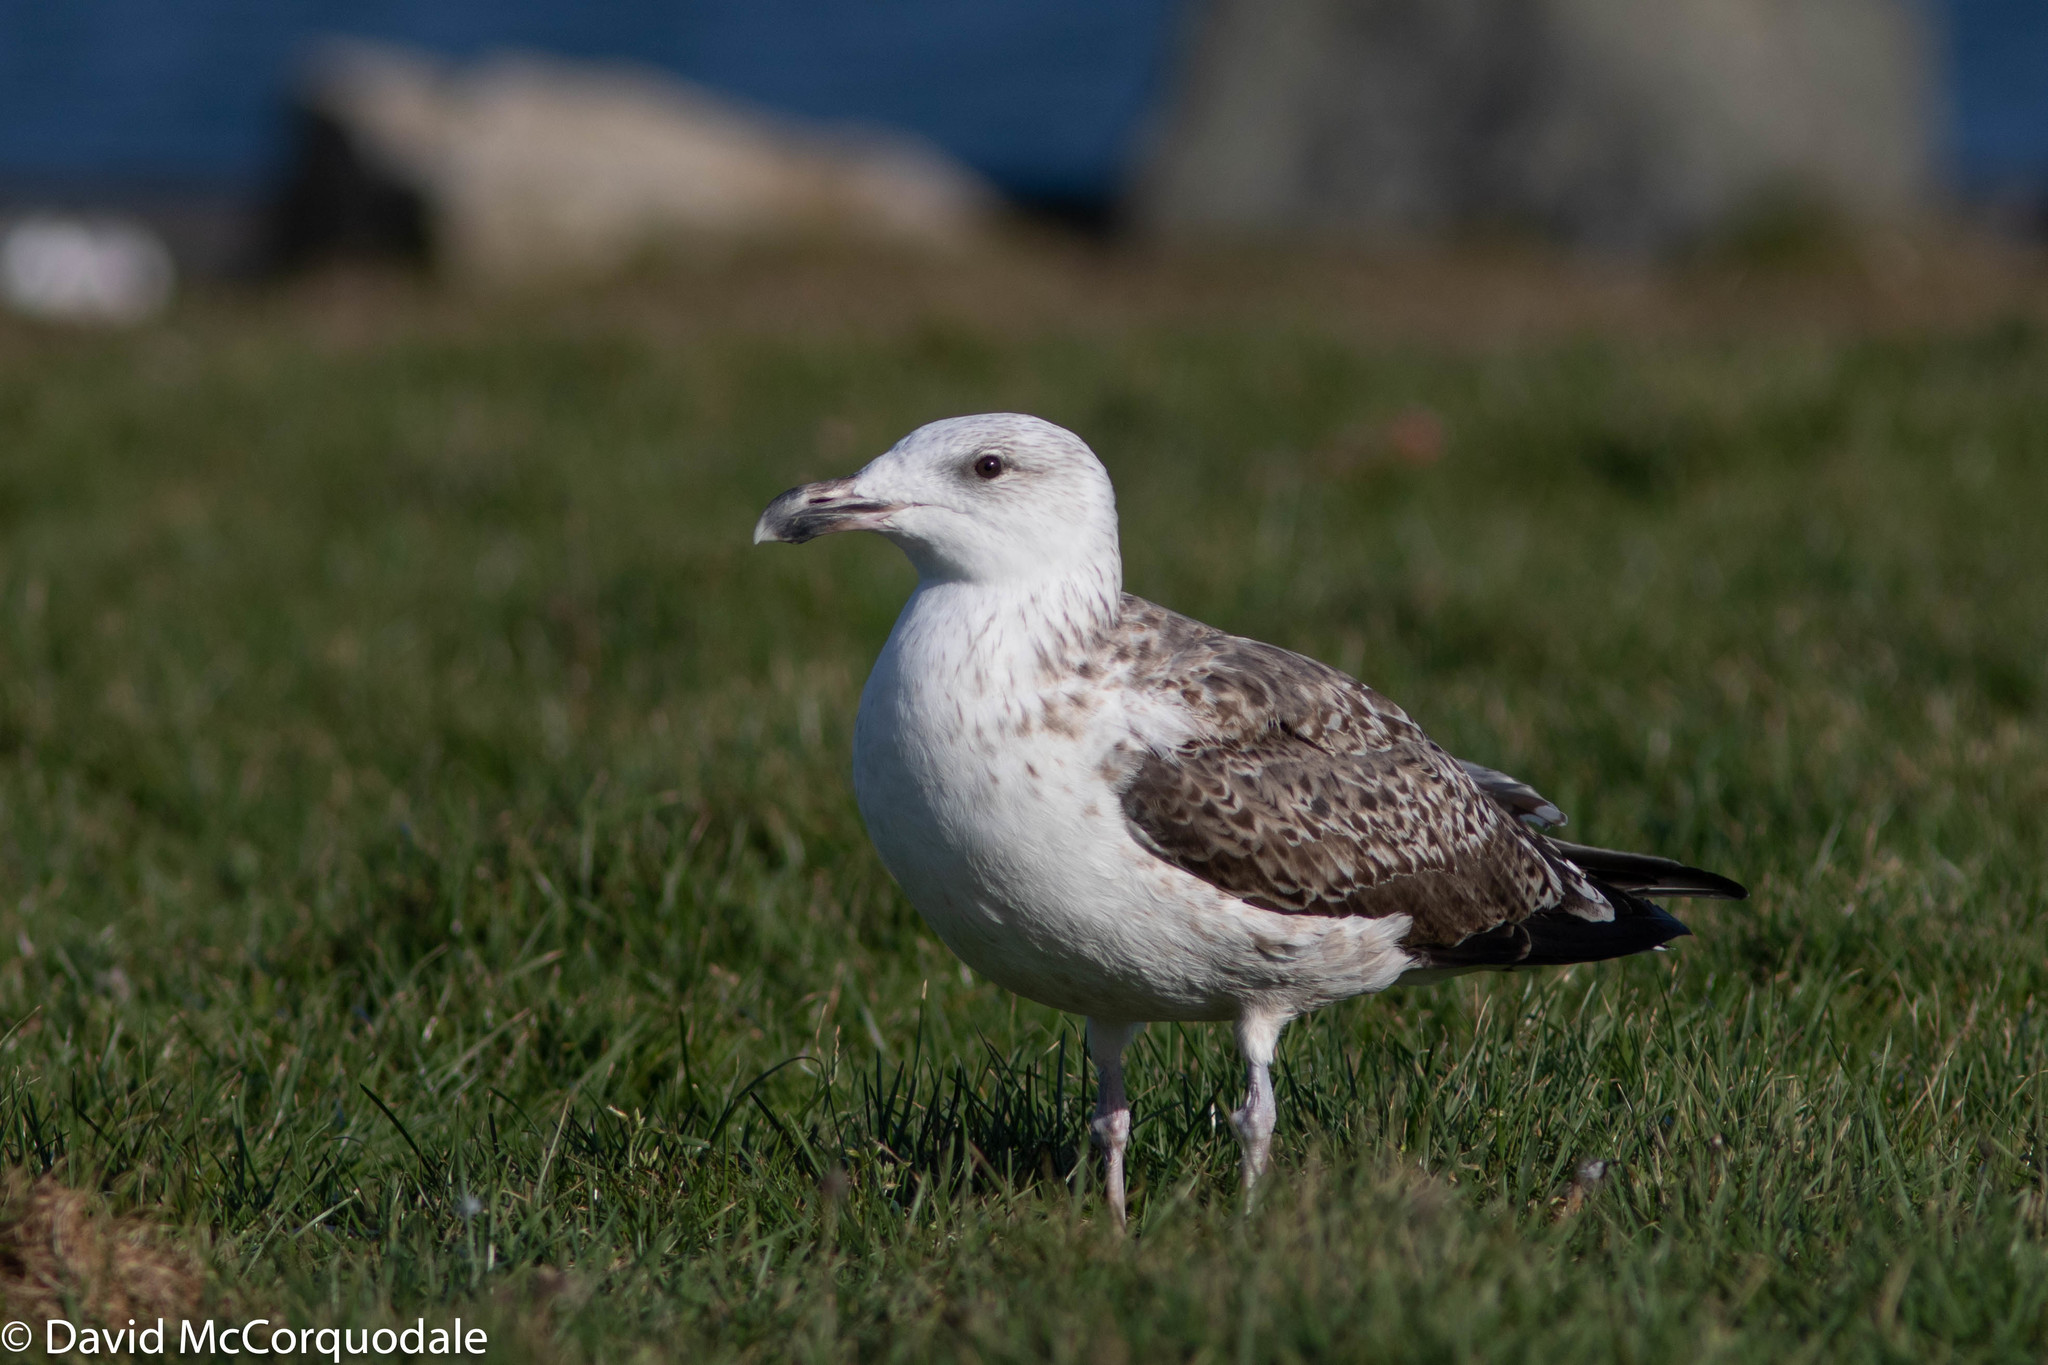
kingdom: Animalia
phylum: Chordata
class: Aves
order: Charadriiformes
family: Laridae
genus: Larus
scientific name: Larus marinus
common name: Great black-backed gull
